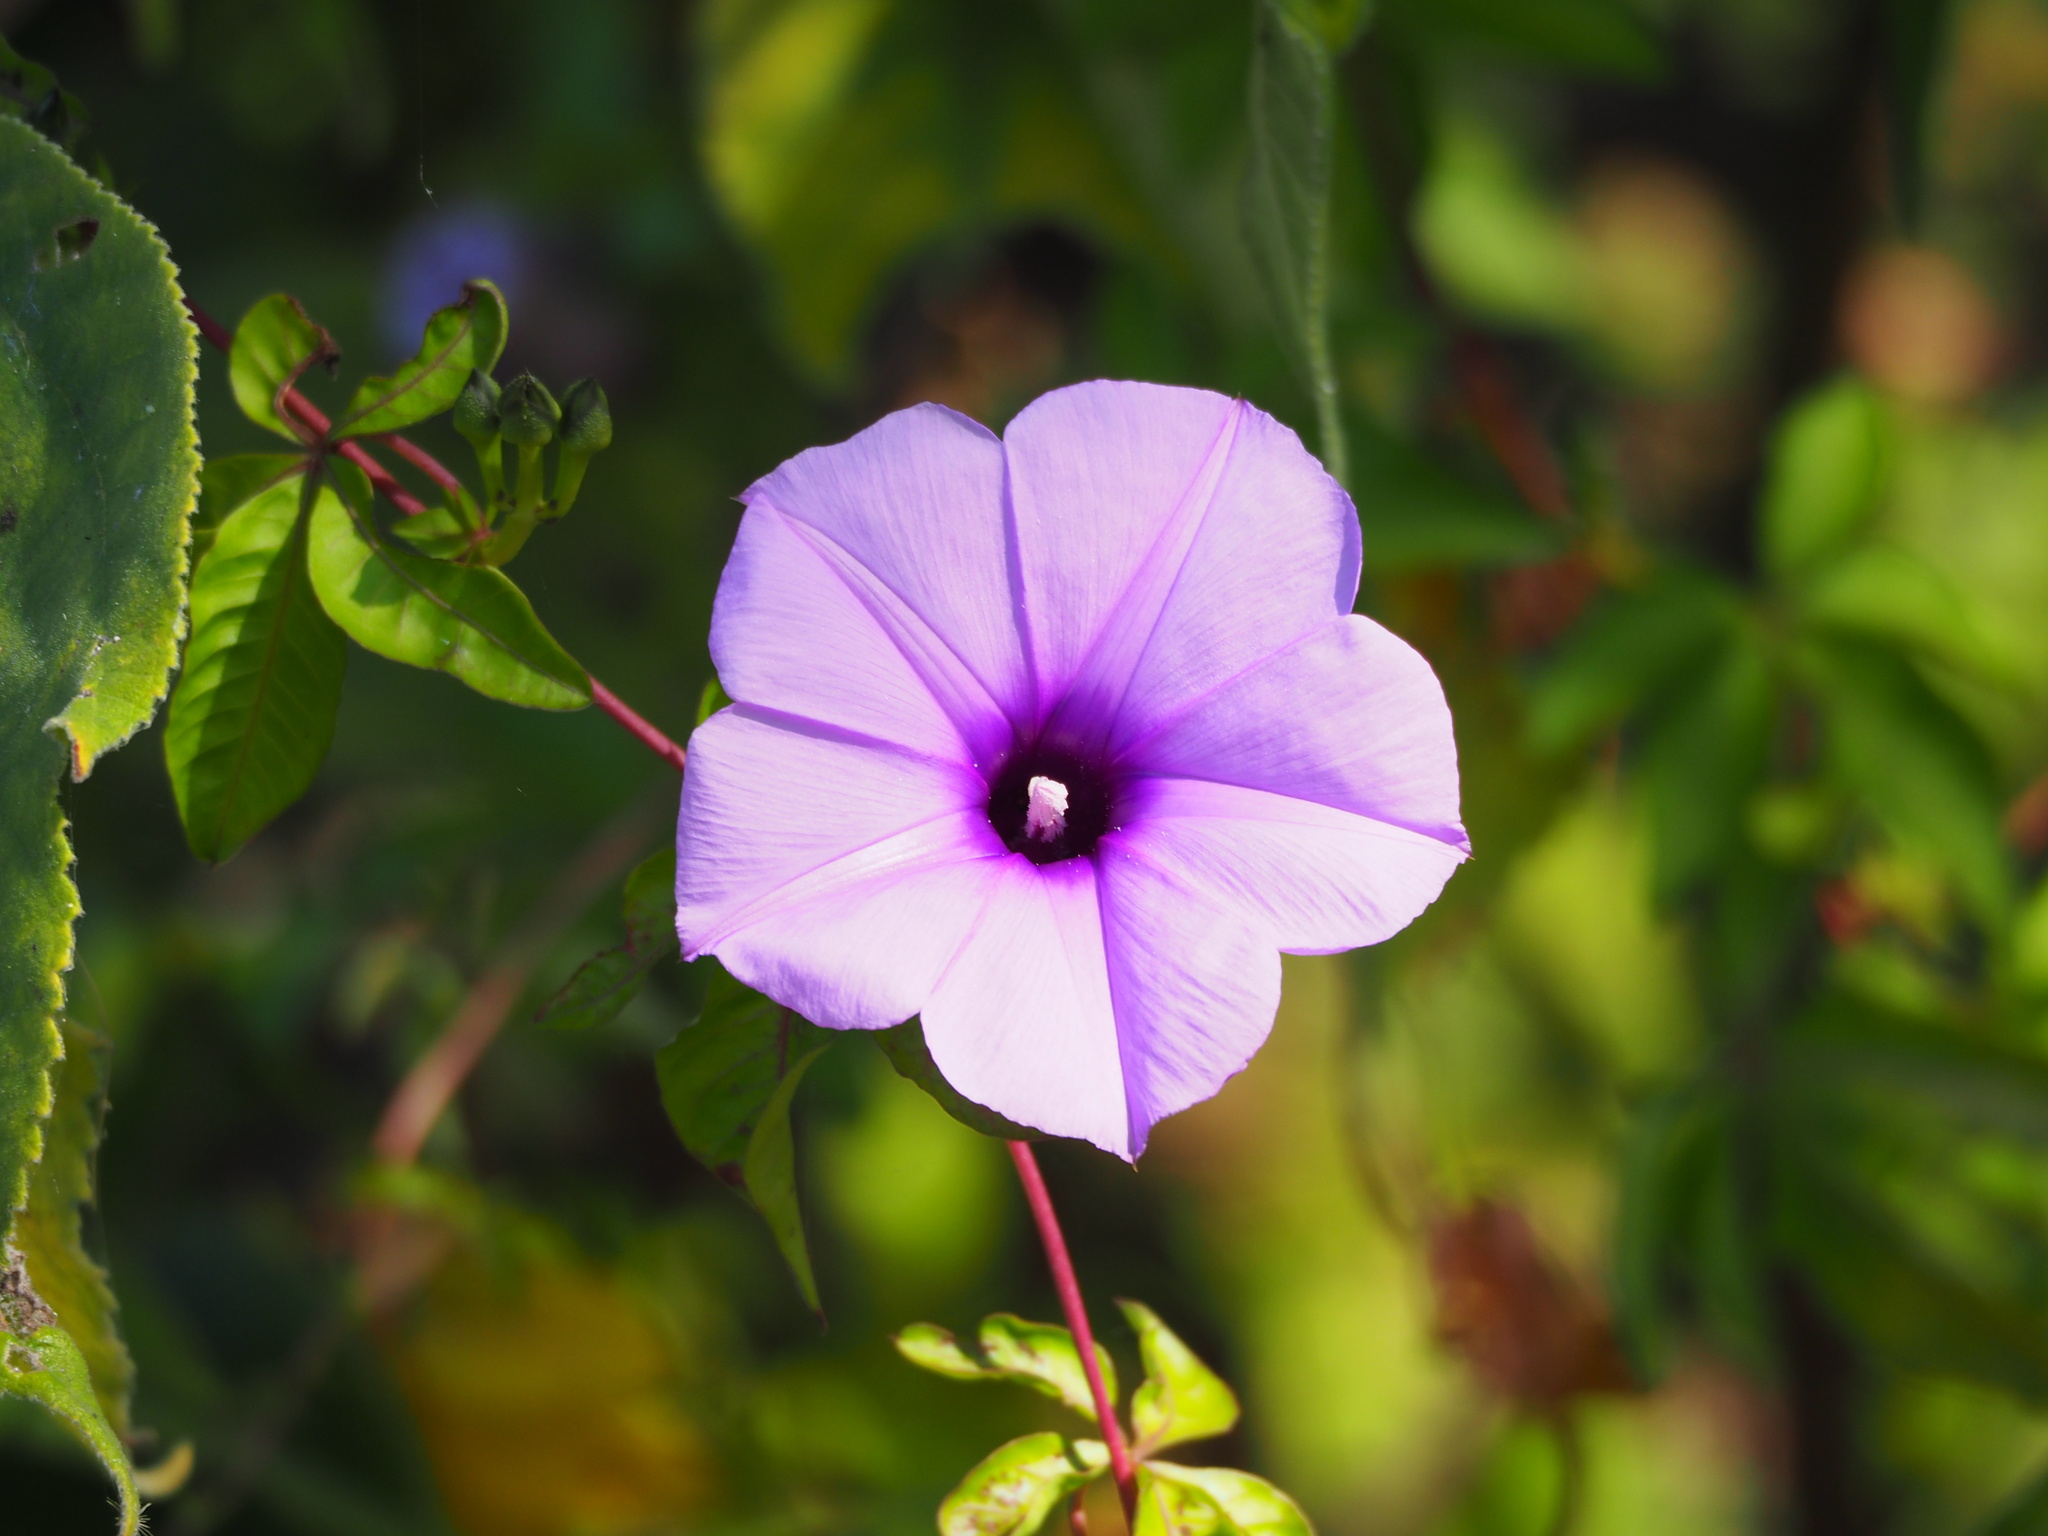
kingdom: Plantae
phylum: Tracheophyta
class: Magnoliopsida
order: Solanales
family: Convolvulaceae
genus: Ipomoea
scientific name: Ipomoea cairica
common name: Mile a minute vine
